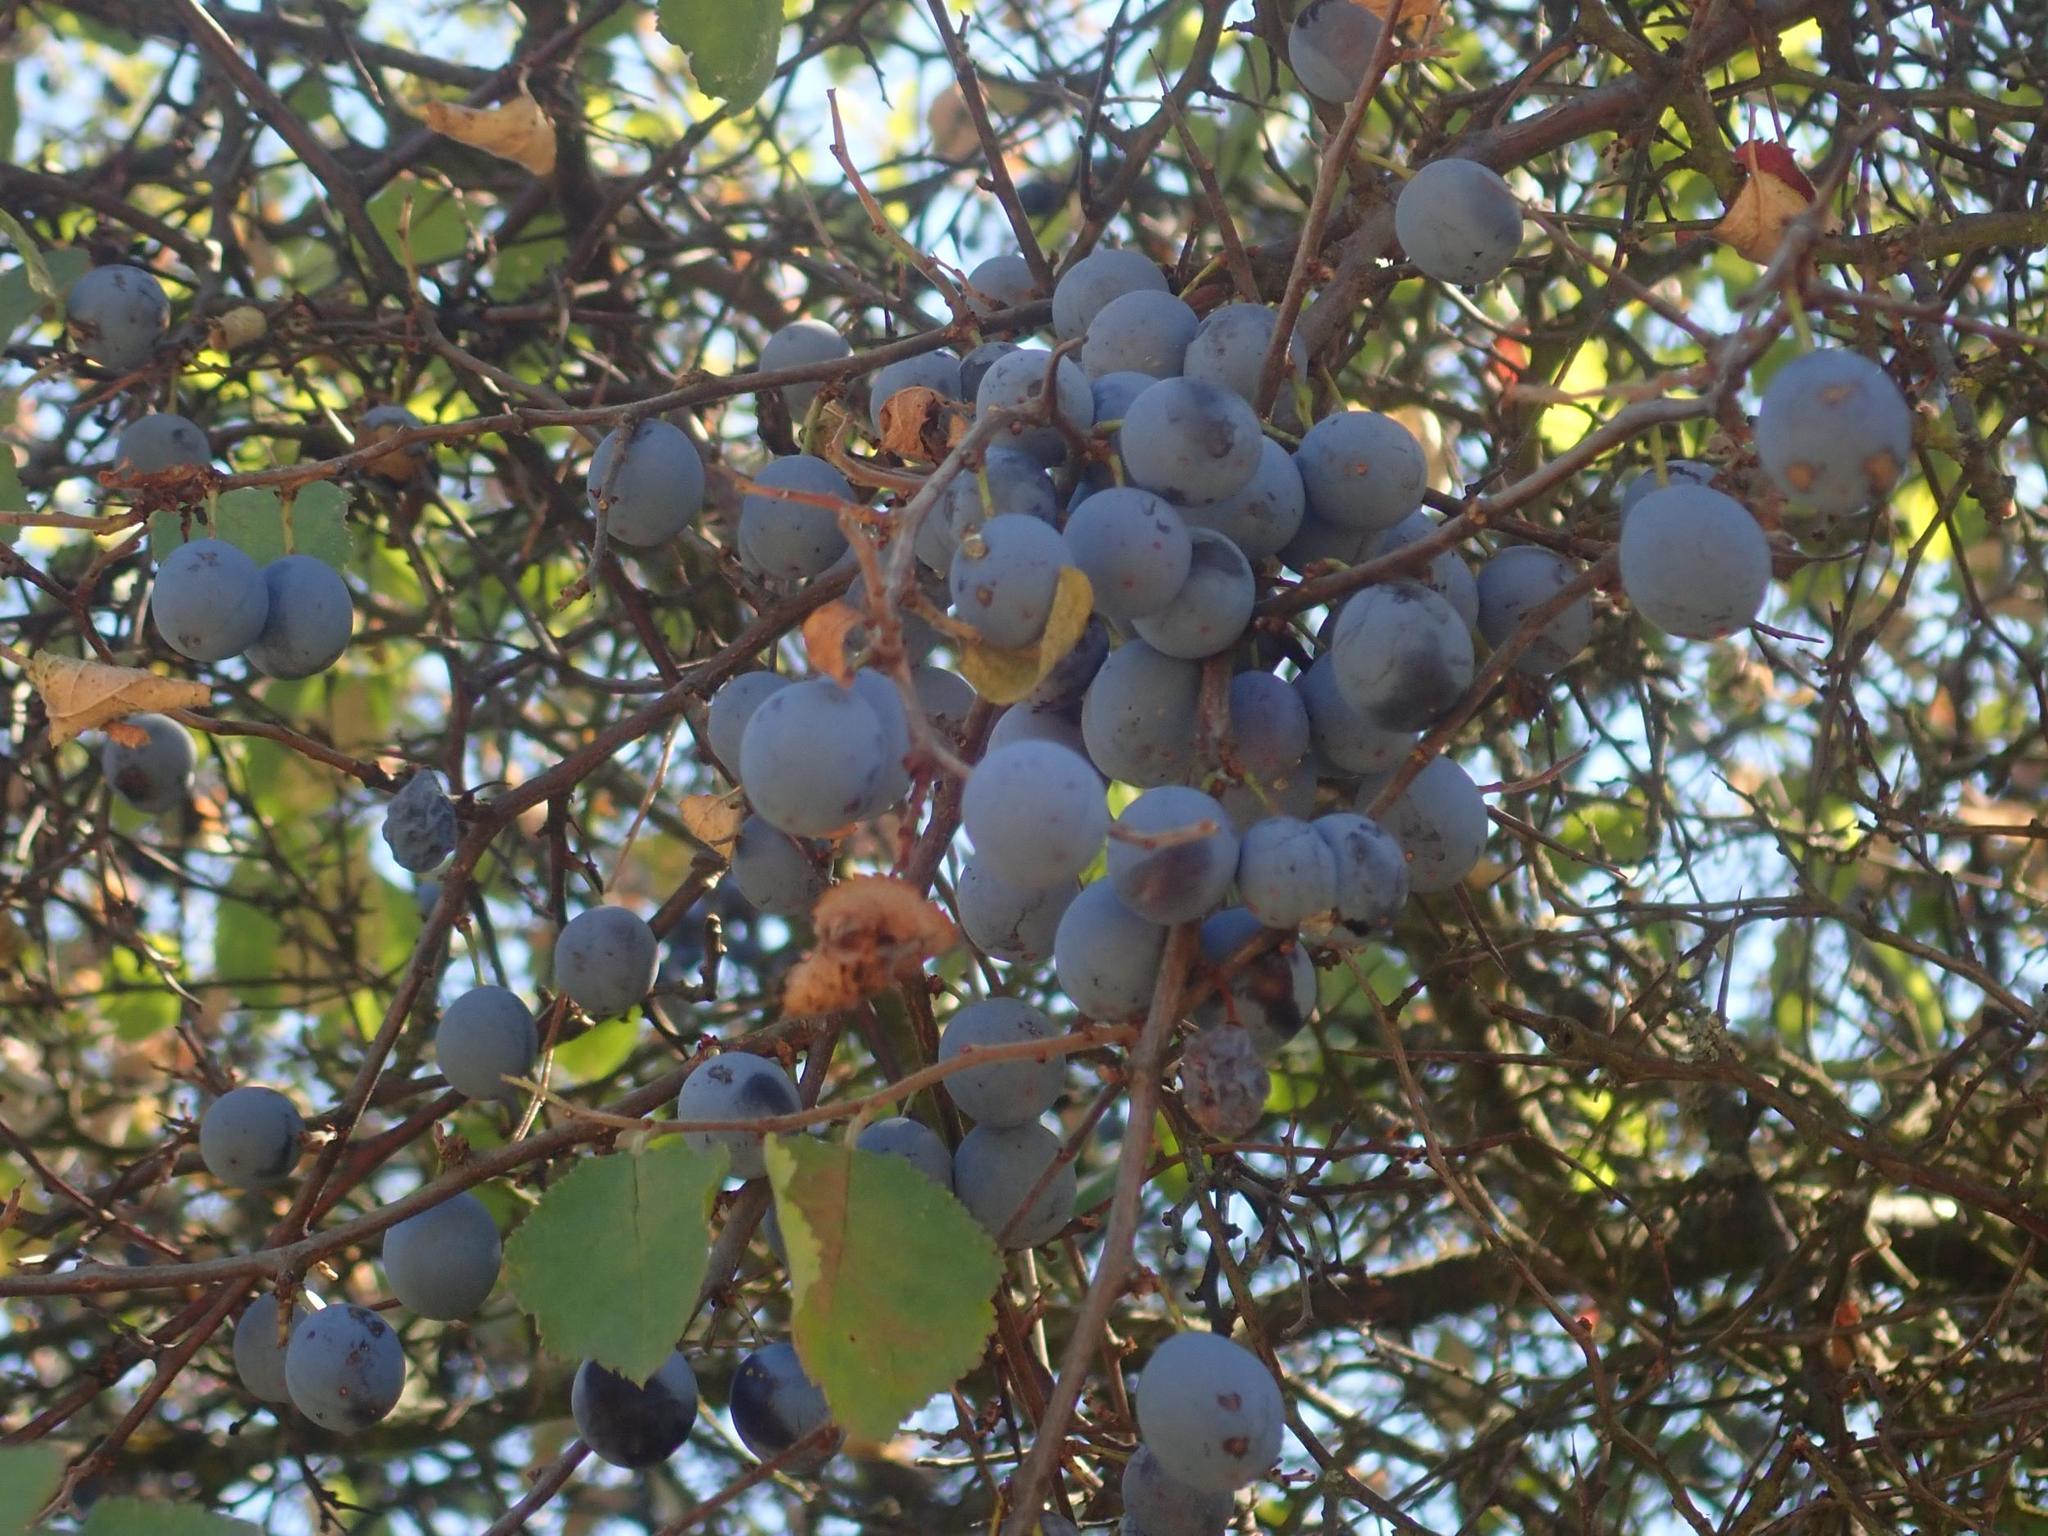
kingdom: Plantae
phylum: Tracheophyta
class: Magnoliopsida
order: Rosales
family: Rosaceae
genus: Prunus
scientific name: Prunus spinosa
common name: Blackthorn
